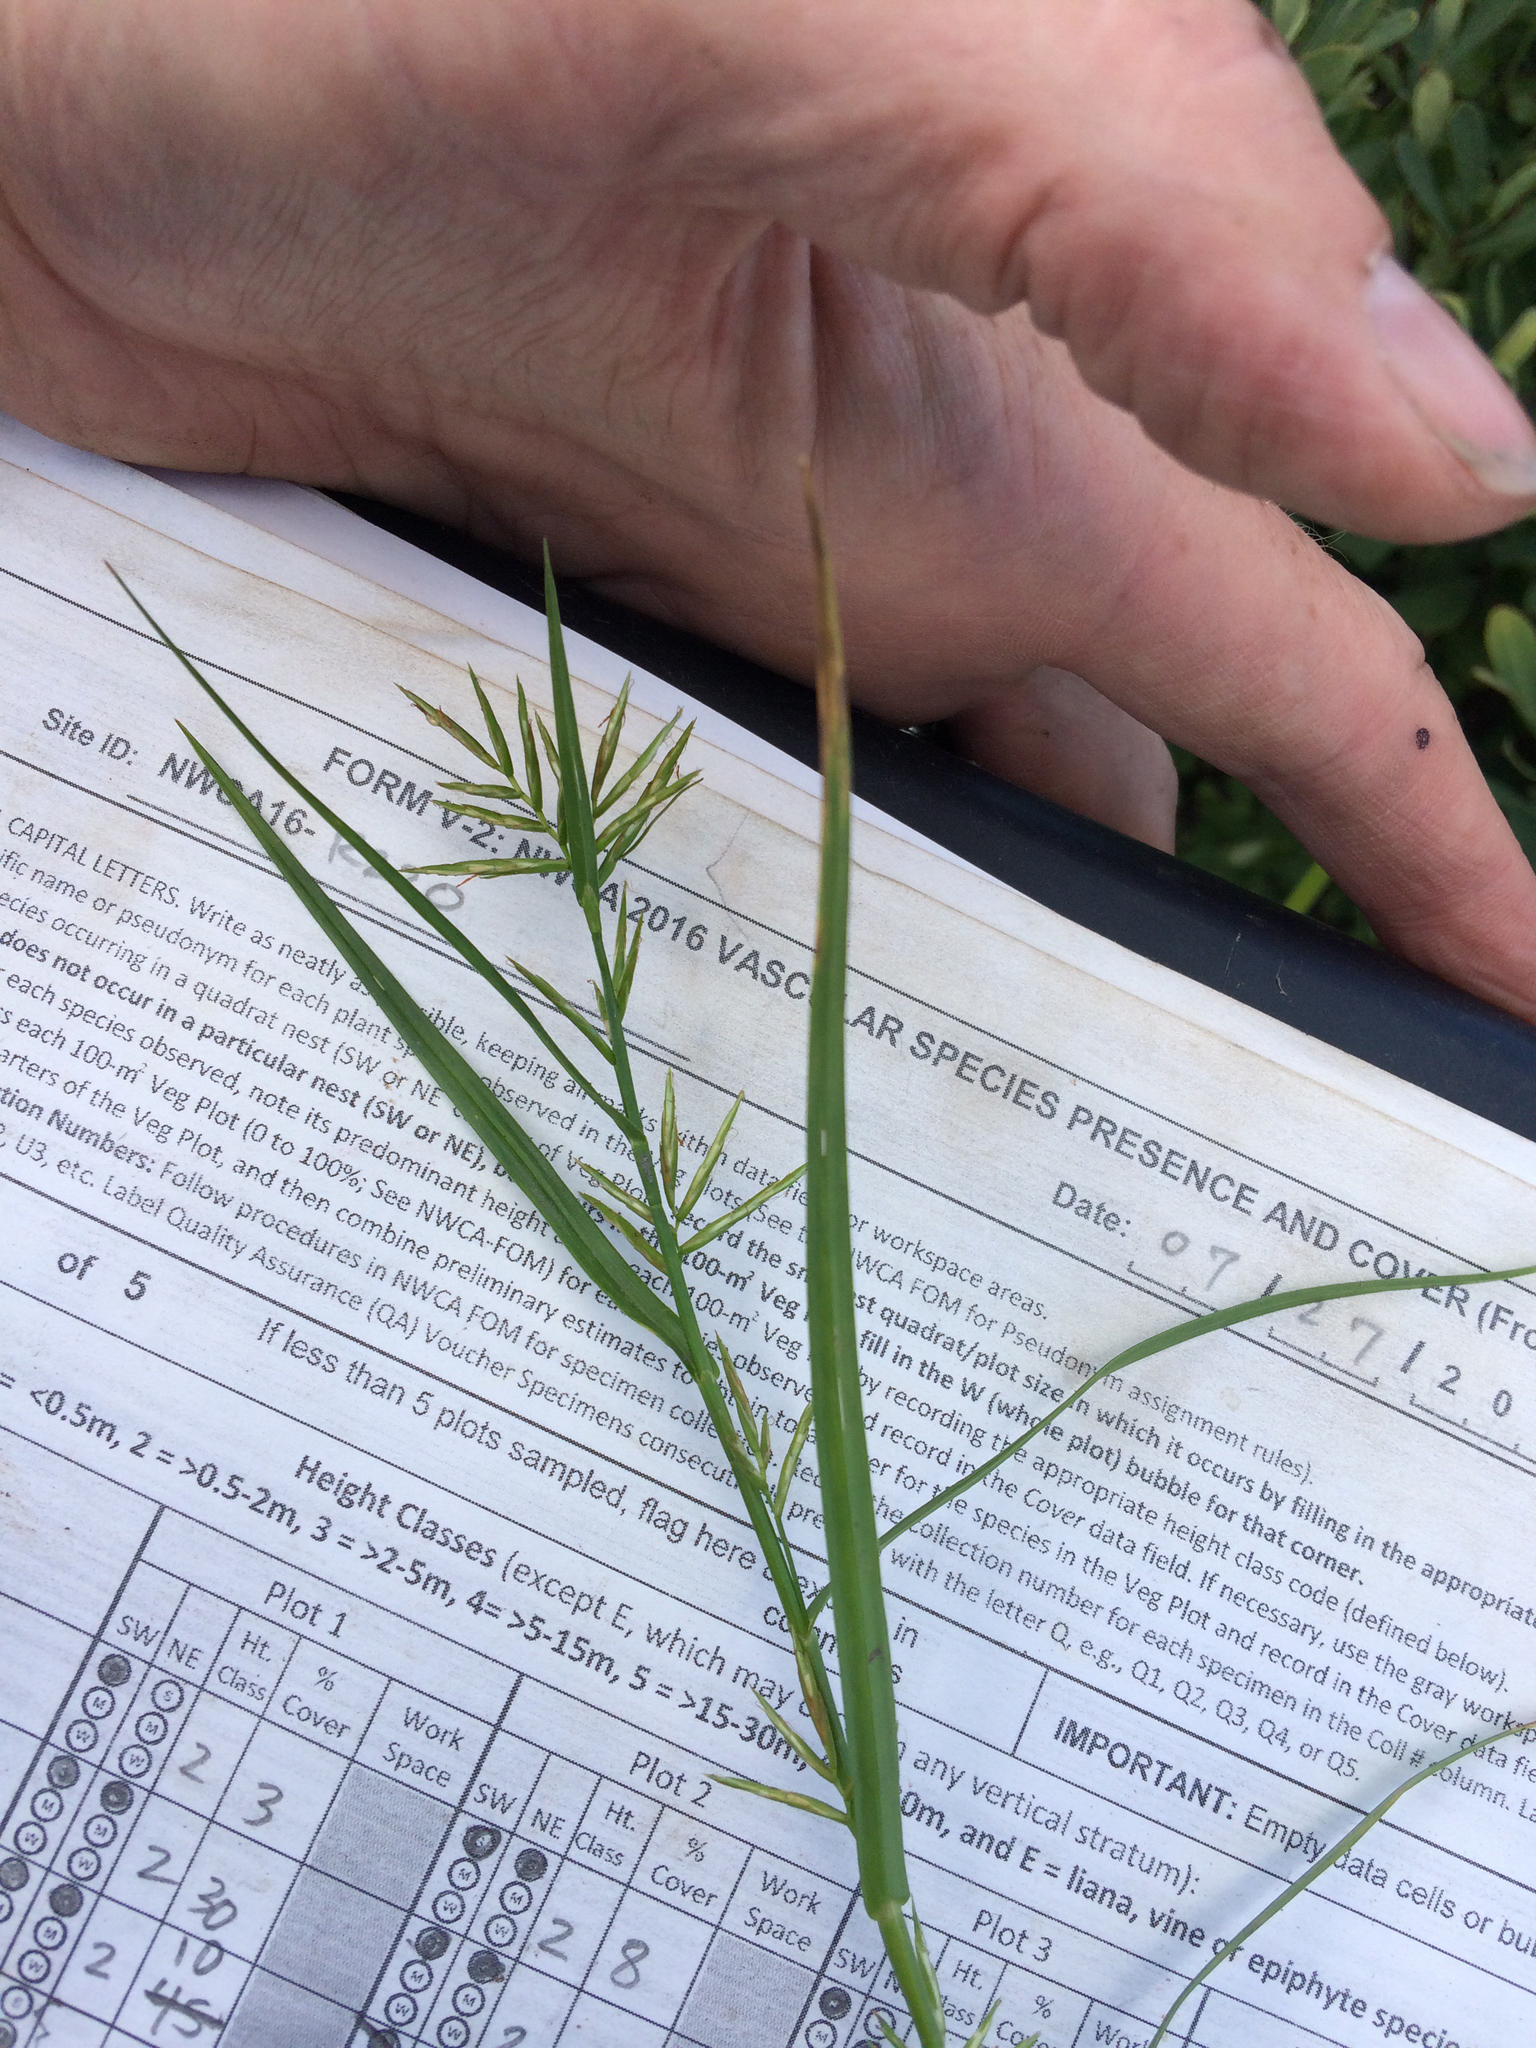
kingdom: Plantae
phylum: Tracheophyta
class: Liliopsida
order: Poales
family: Cyperaceae
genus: Dulichium
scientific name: Dulichium arundinaceum
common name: Three-way sedge
